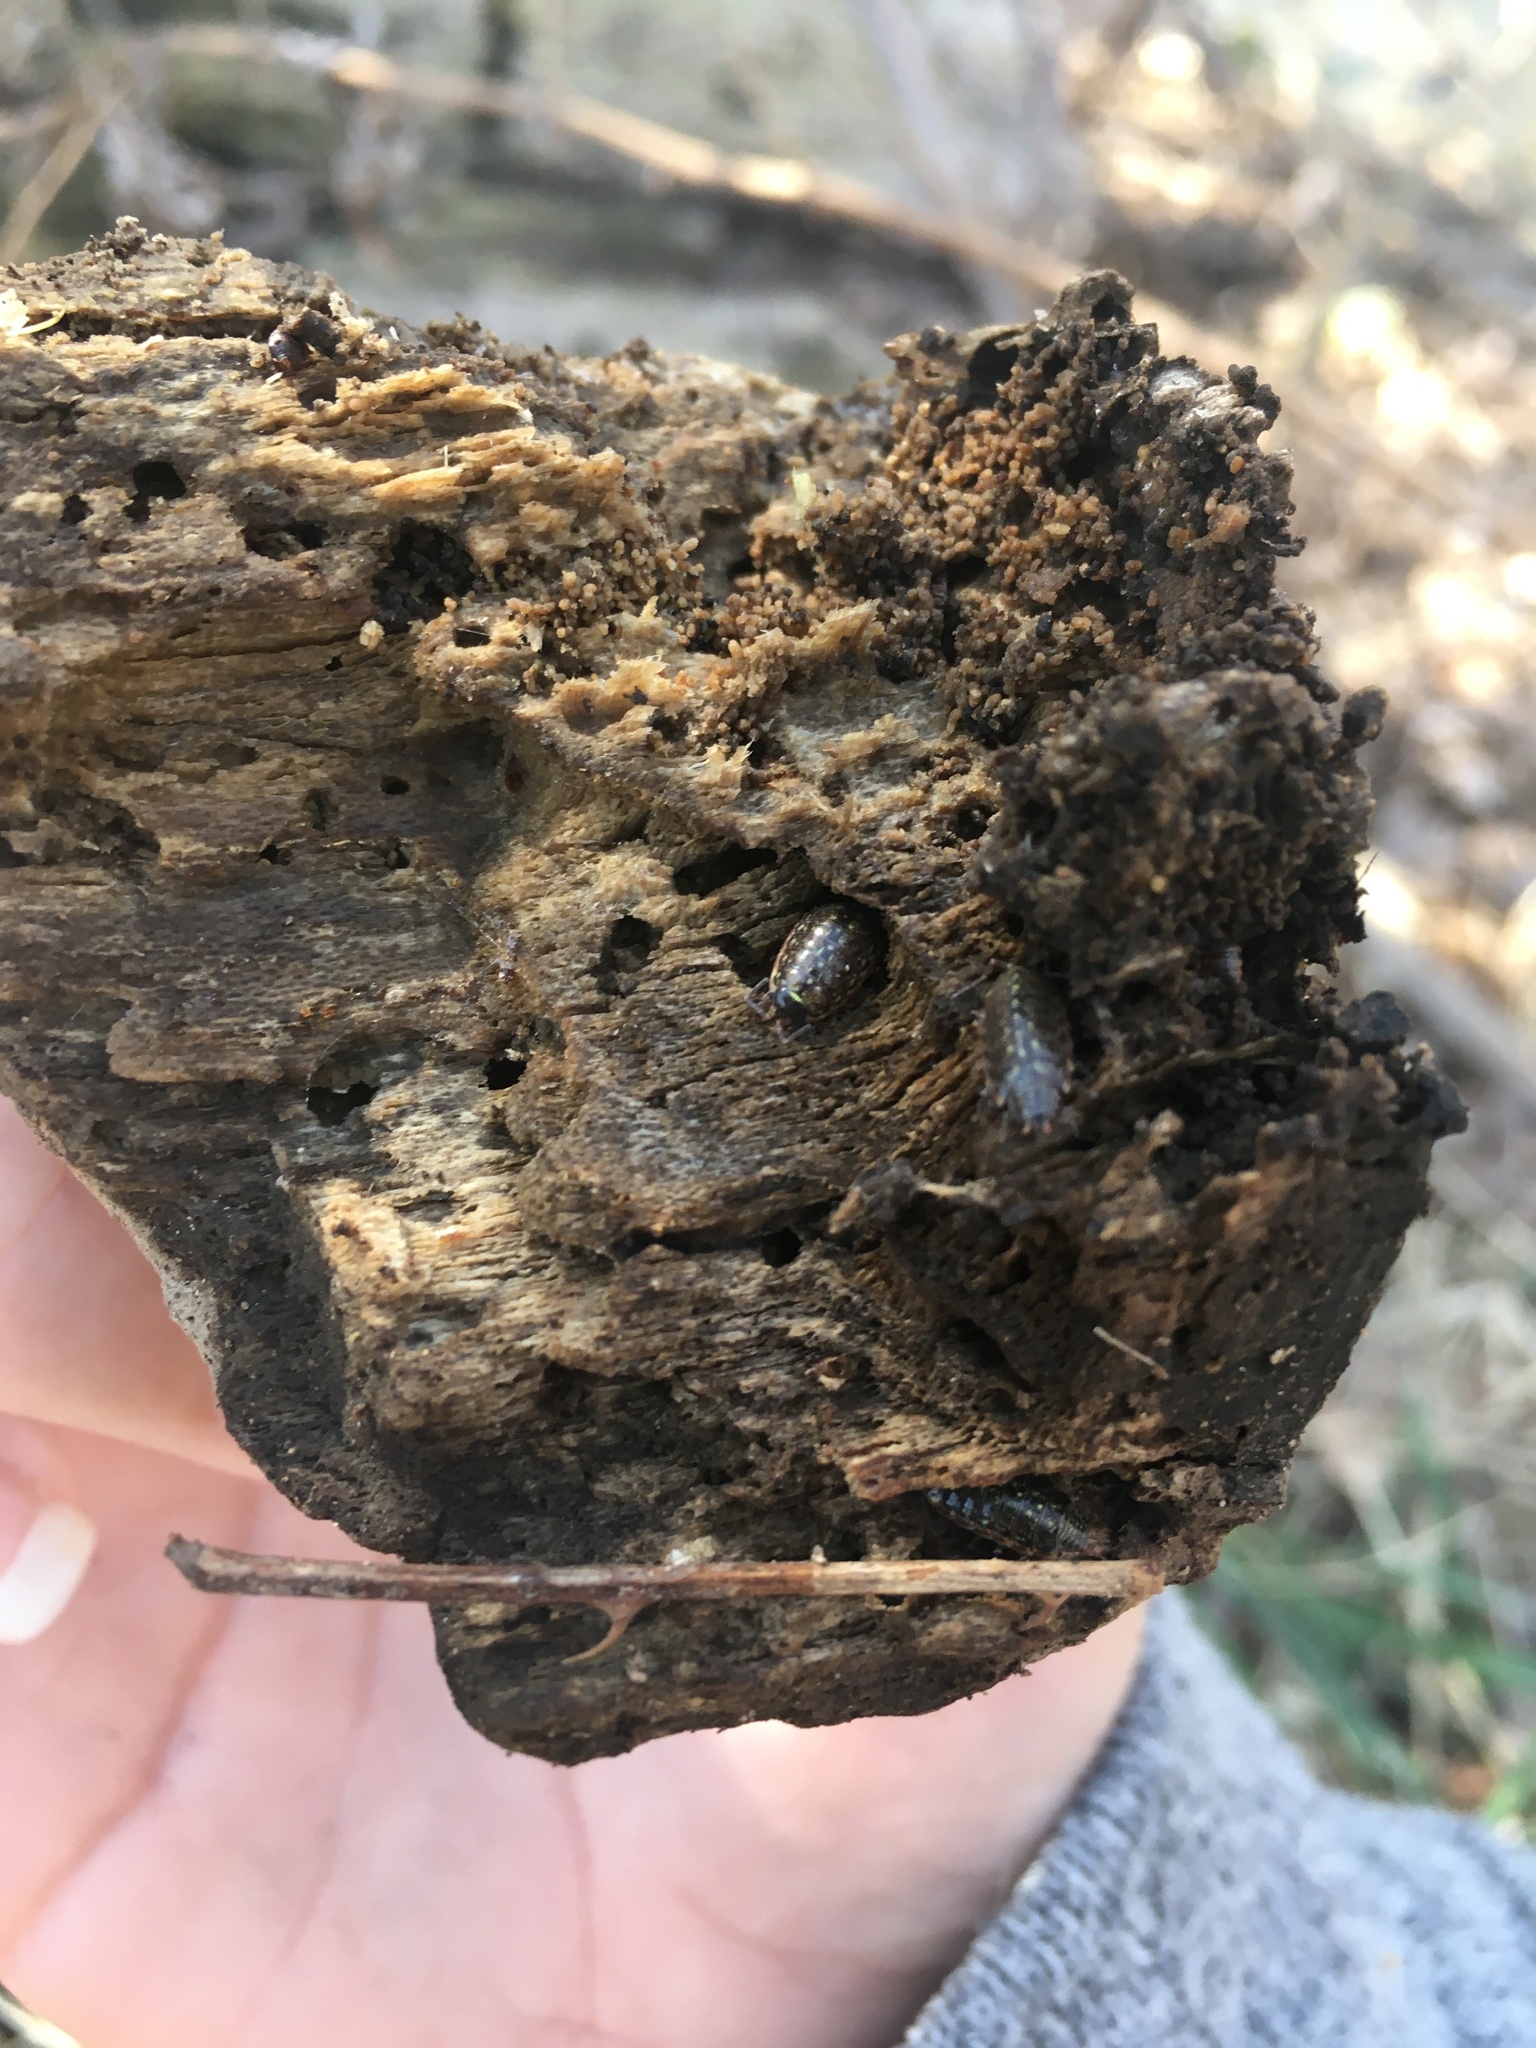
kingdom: Animalia
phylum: Arthropoda
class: Malacostraca
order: Isopoda
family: Philosciidae
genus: Philoscia
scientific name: Philoscia muscorum
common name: Common striped woodlouse
